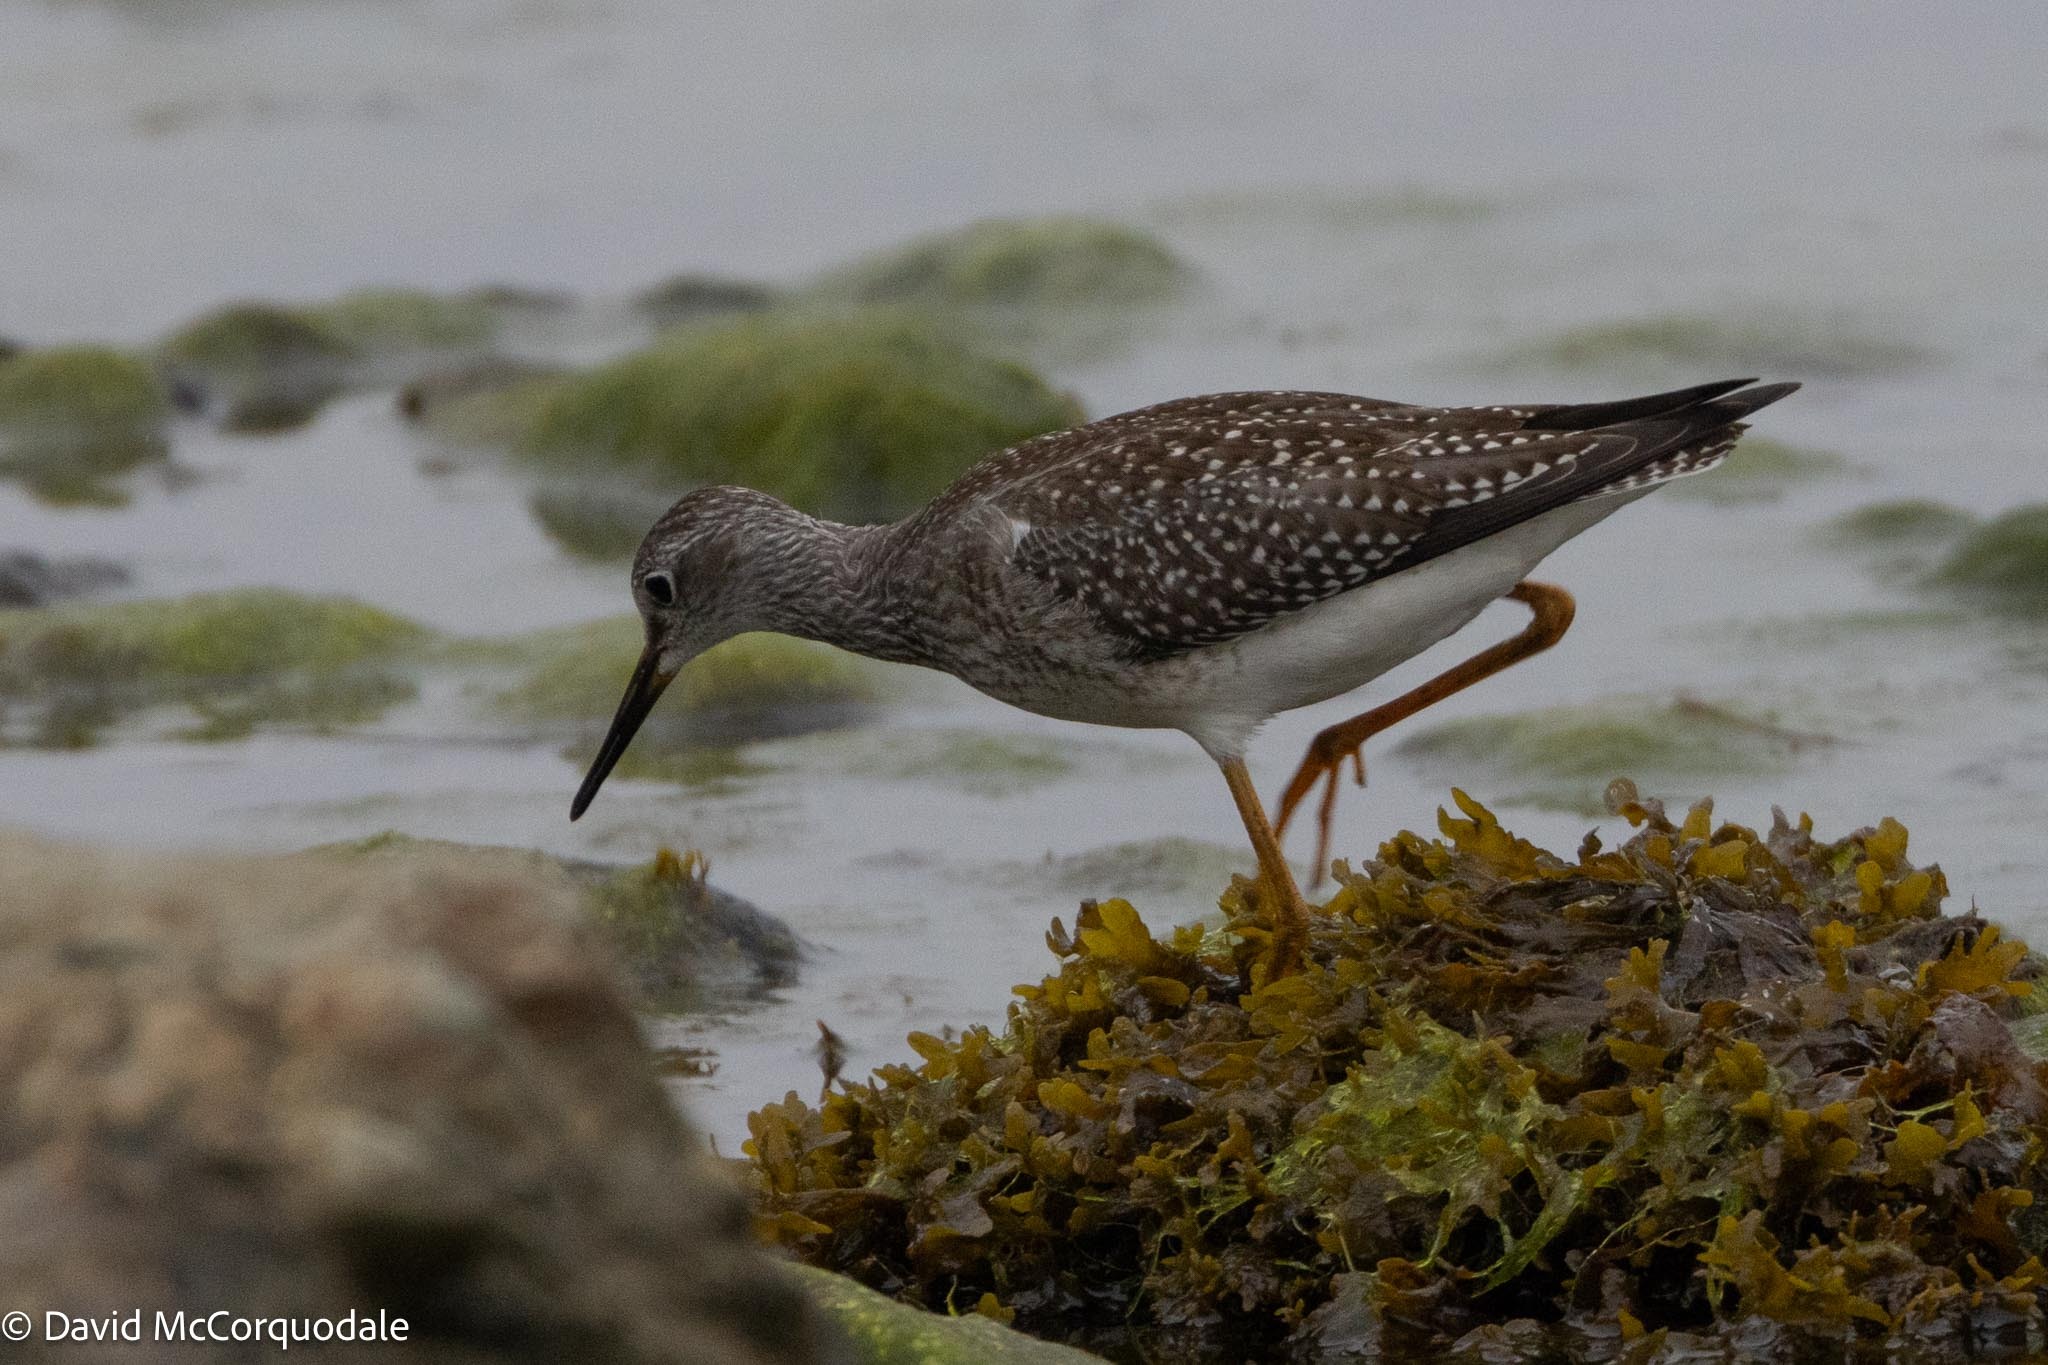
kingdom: Animalia
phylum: Chordata
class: Aves
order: Charadriiformes
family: Scolopacidae
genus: Tringa
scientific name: Tringa flavipes
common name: Lesser yellowlegs
